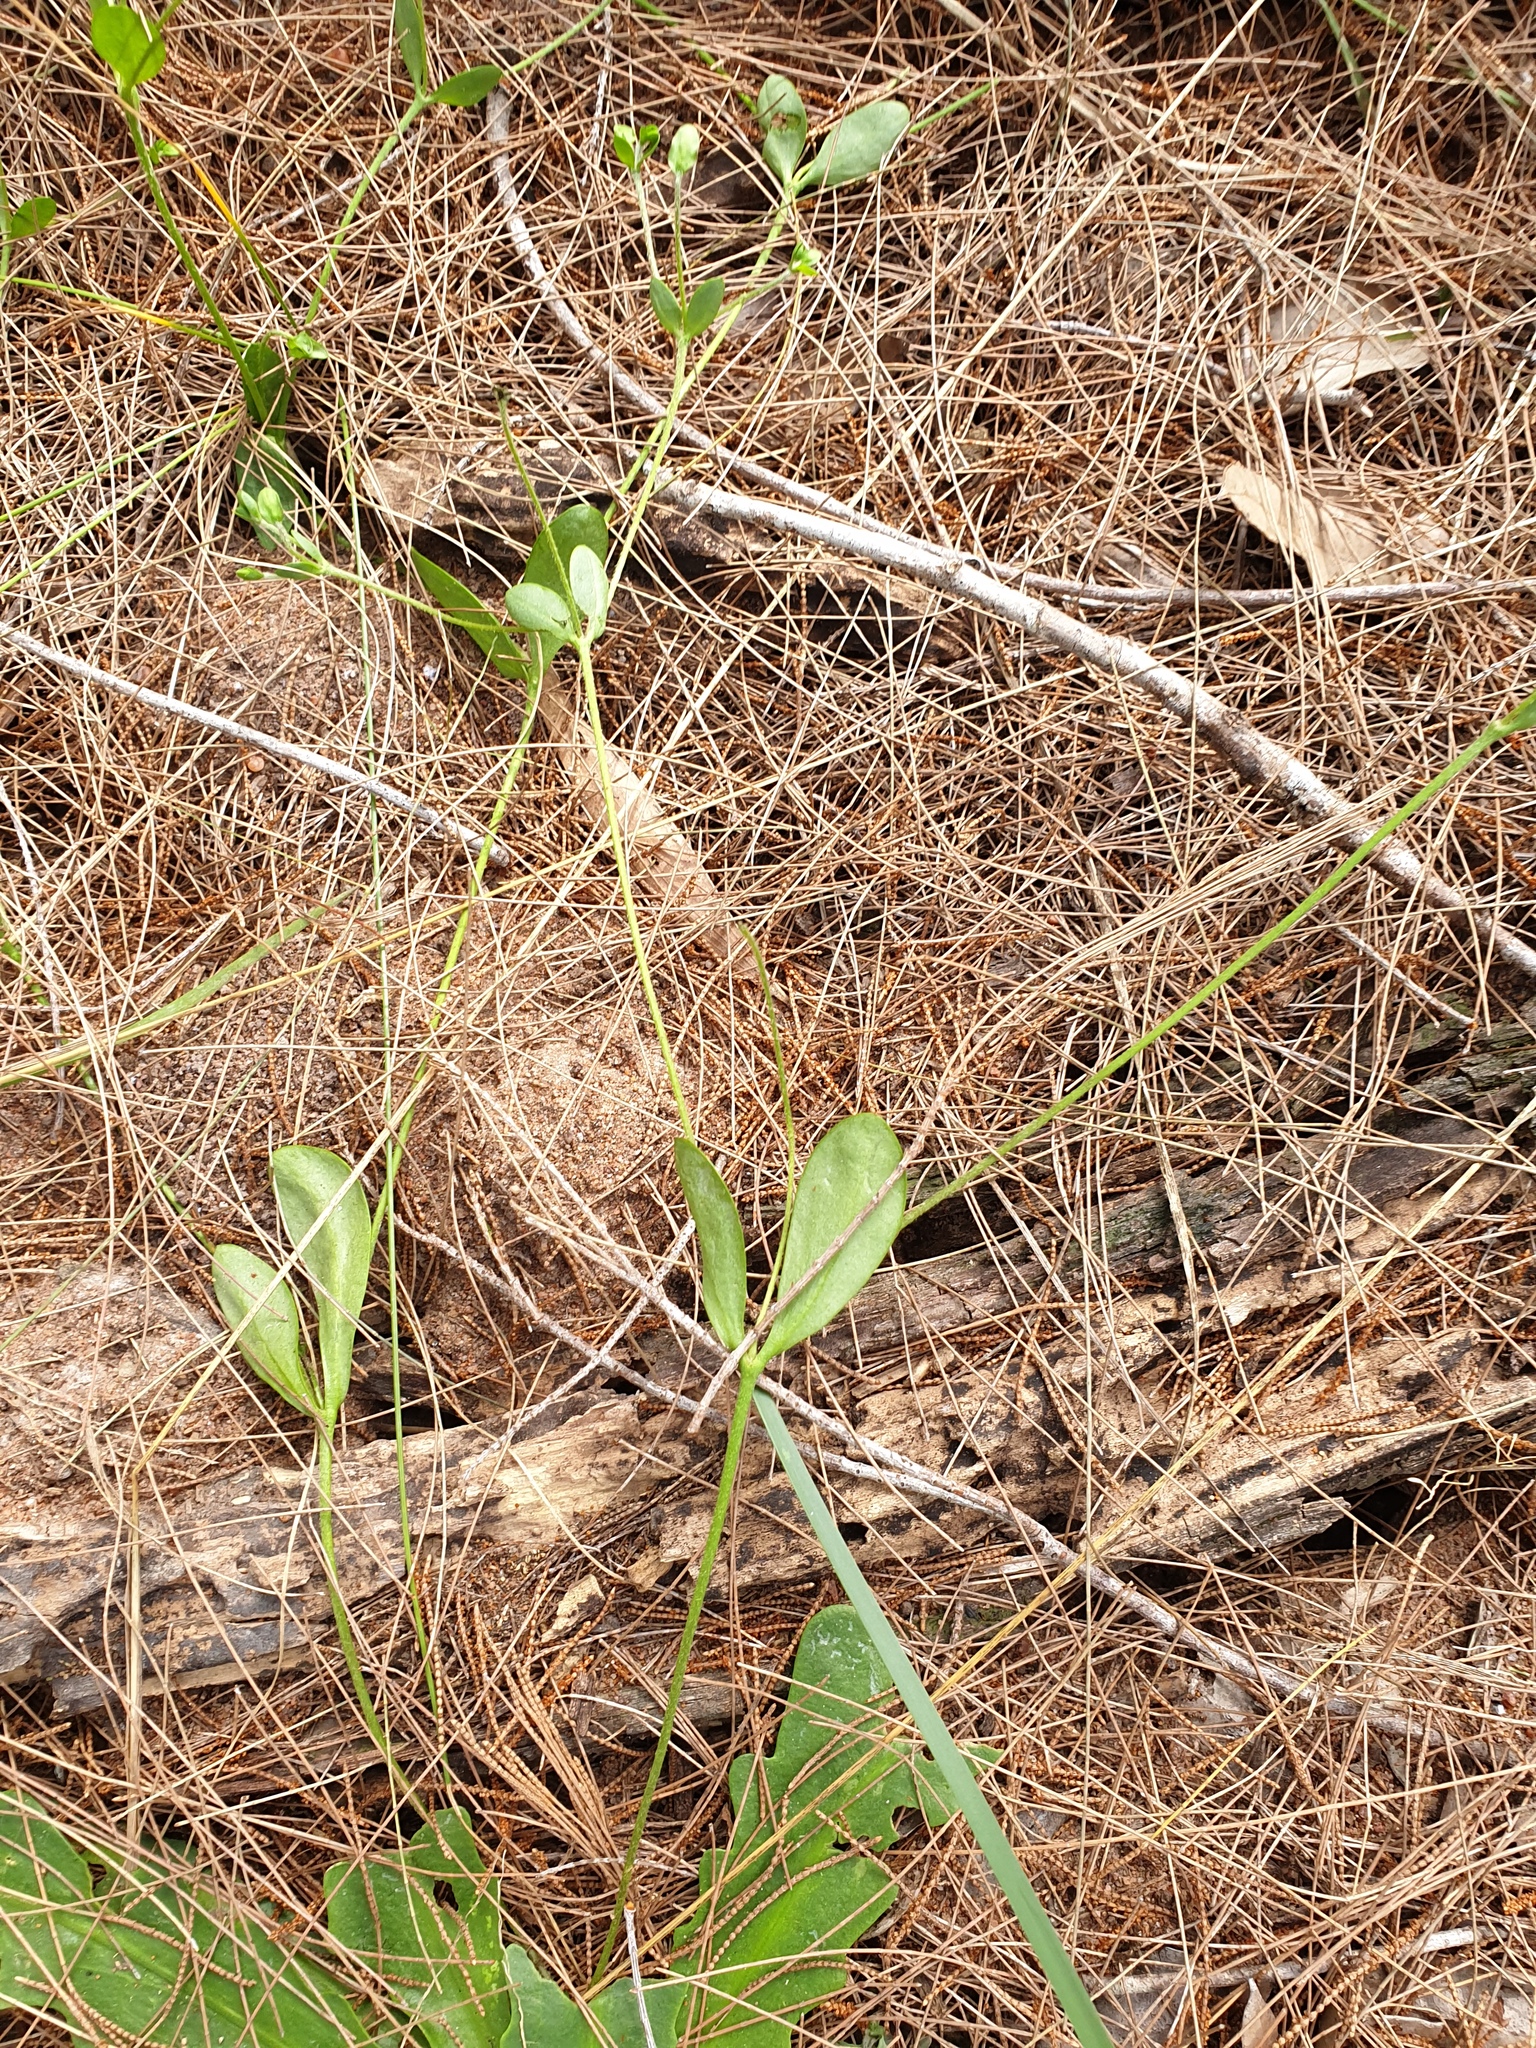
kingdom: Plantae
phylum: Tracheophyta
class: Magnoliopsida
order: Asterales
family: Goodeniaceae
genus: Goodenia
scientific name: Goodenia mystrophylla
